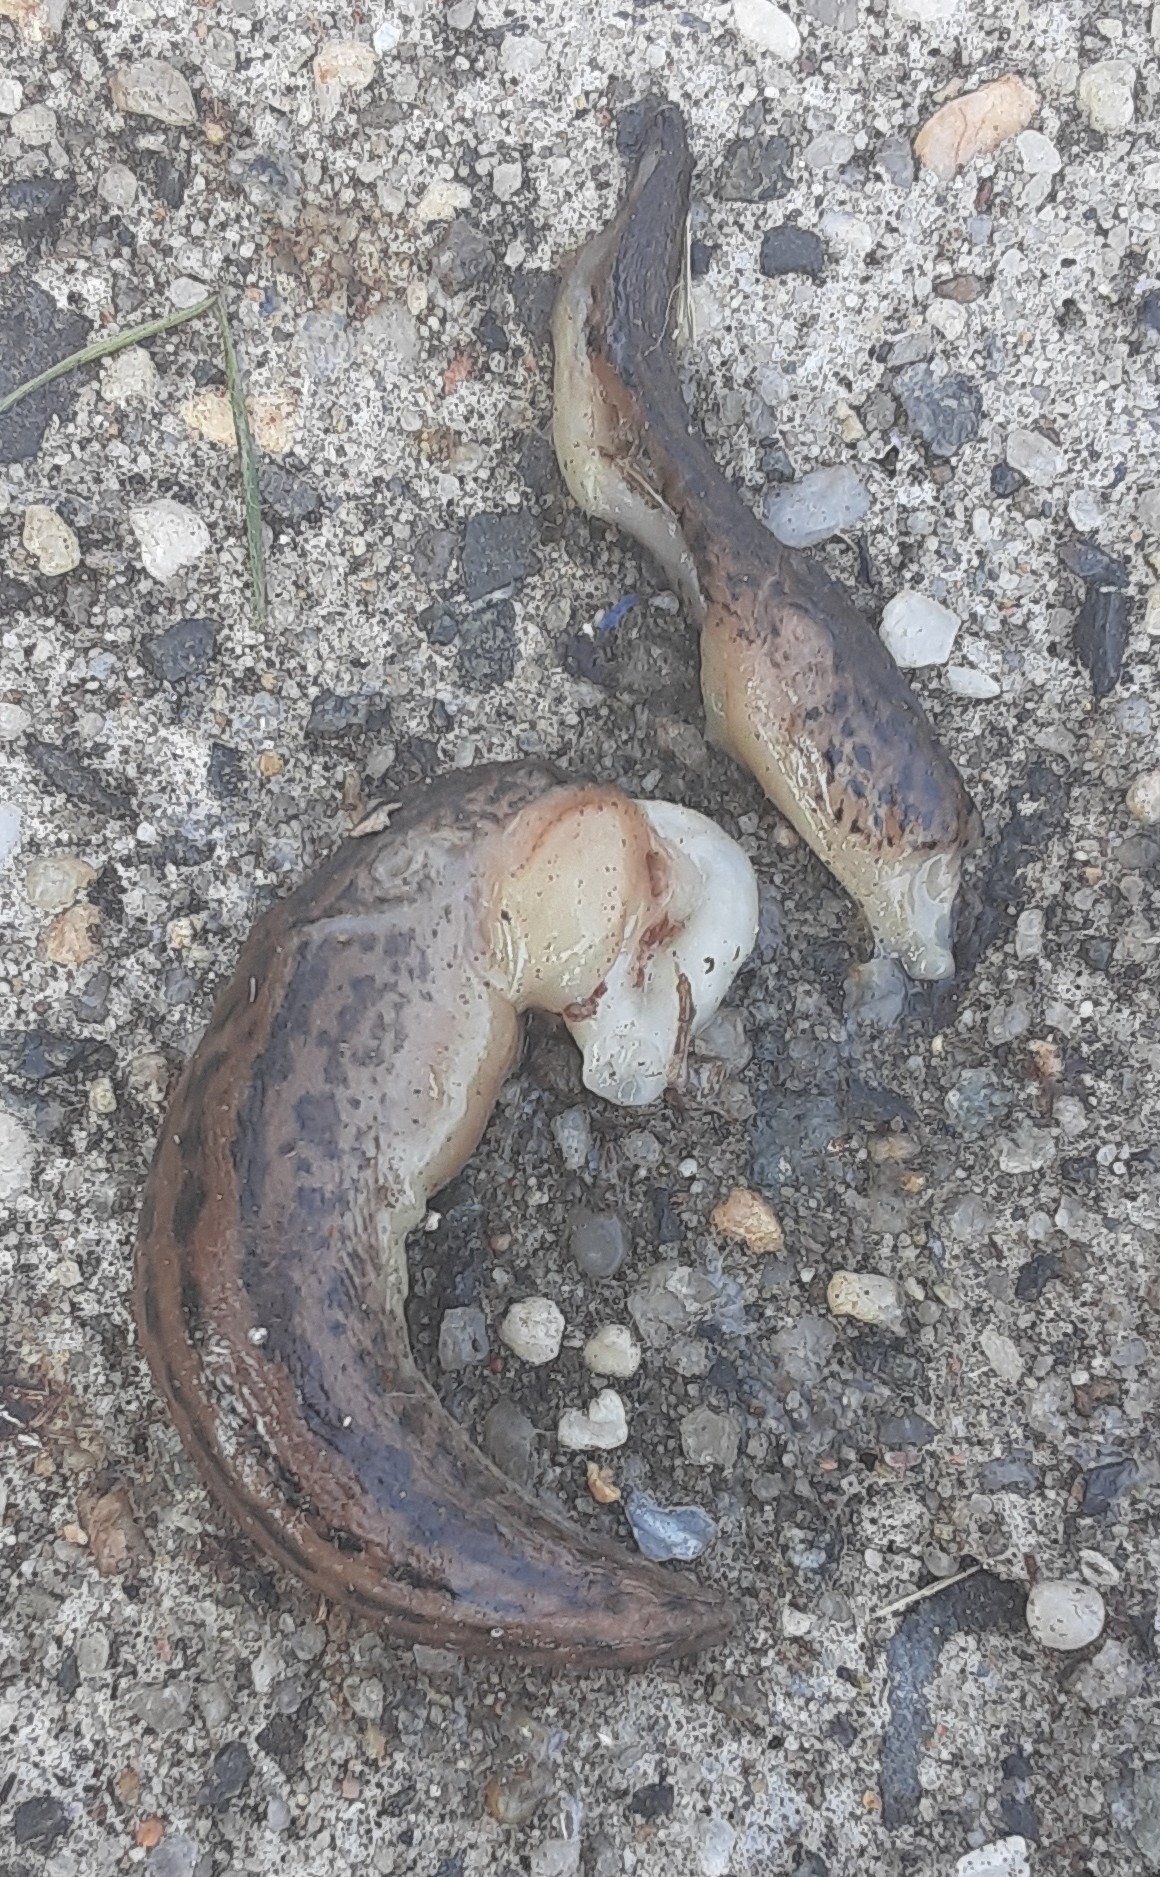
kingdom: Animalia
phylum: Mollusca
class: Gastropoda
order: Stylommatophora
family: Limacidae
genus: Limax
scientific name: Limax maximus
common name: Great grey slug
